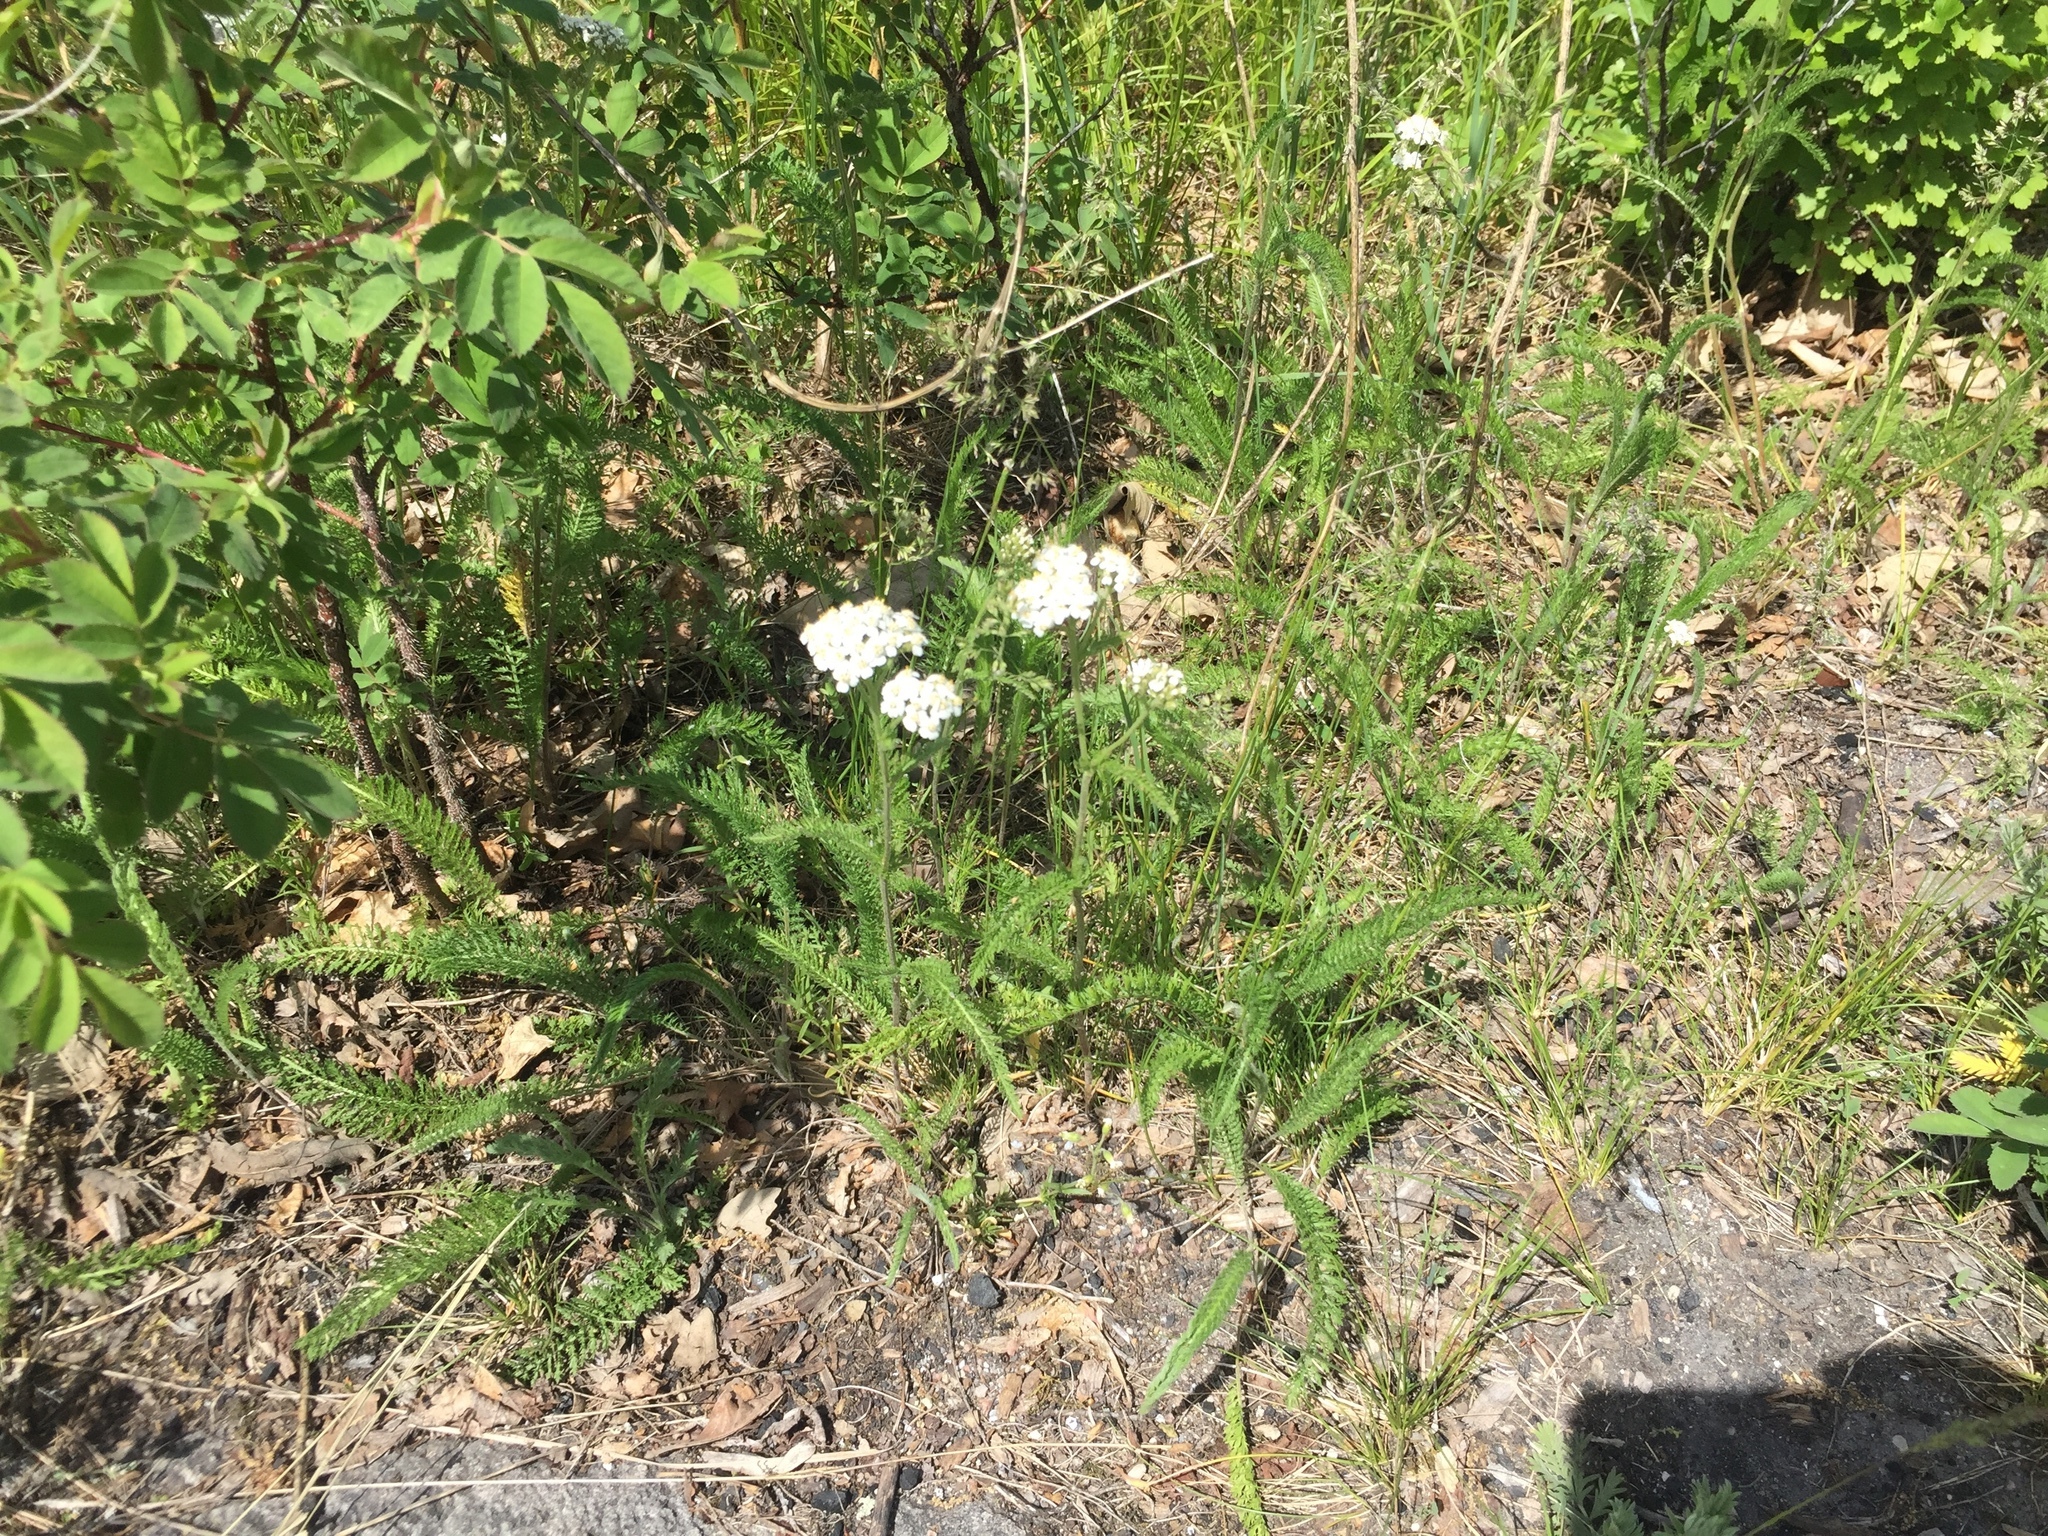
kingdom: Plantae
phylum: Tracheophyta
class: Magnoliopsida
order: Asterales
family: Asteraceae
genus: Achillea
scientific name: Achillea millefolium
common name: Yarrow
